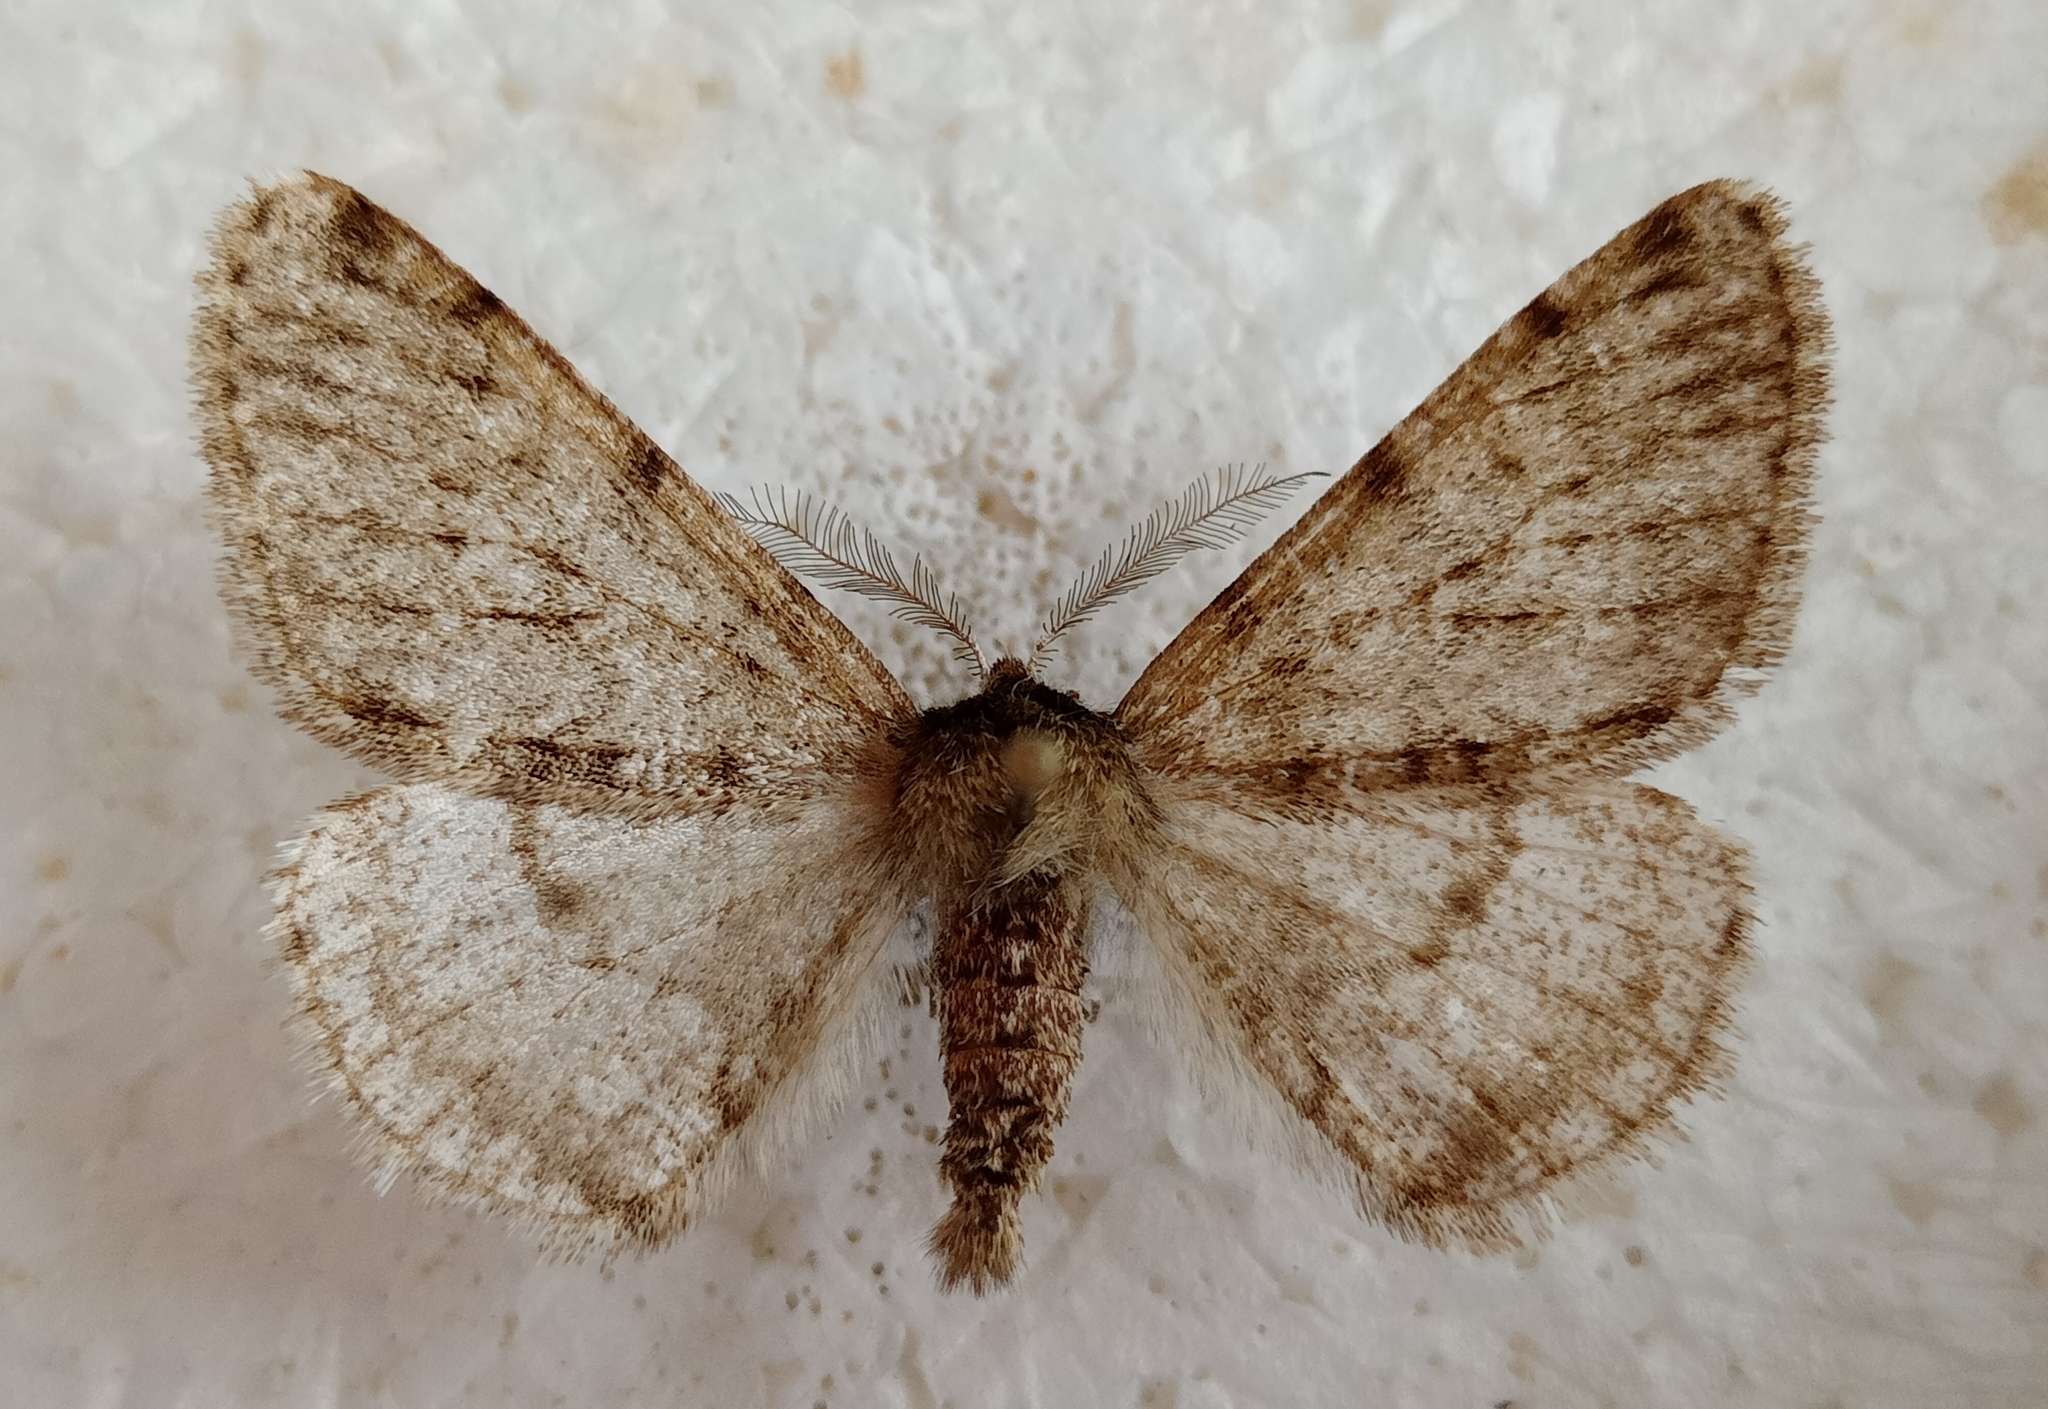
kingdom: Animalia
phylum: Arthropoda
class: Insecta
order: Lepidoptera
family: Geometridae
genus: Phigalia
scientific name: Phigalia pilosaria
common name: Pale brindled beauty
